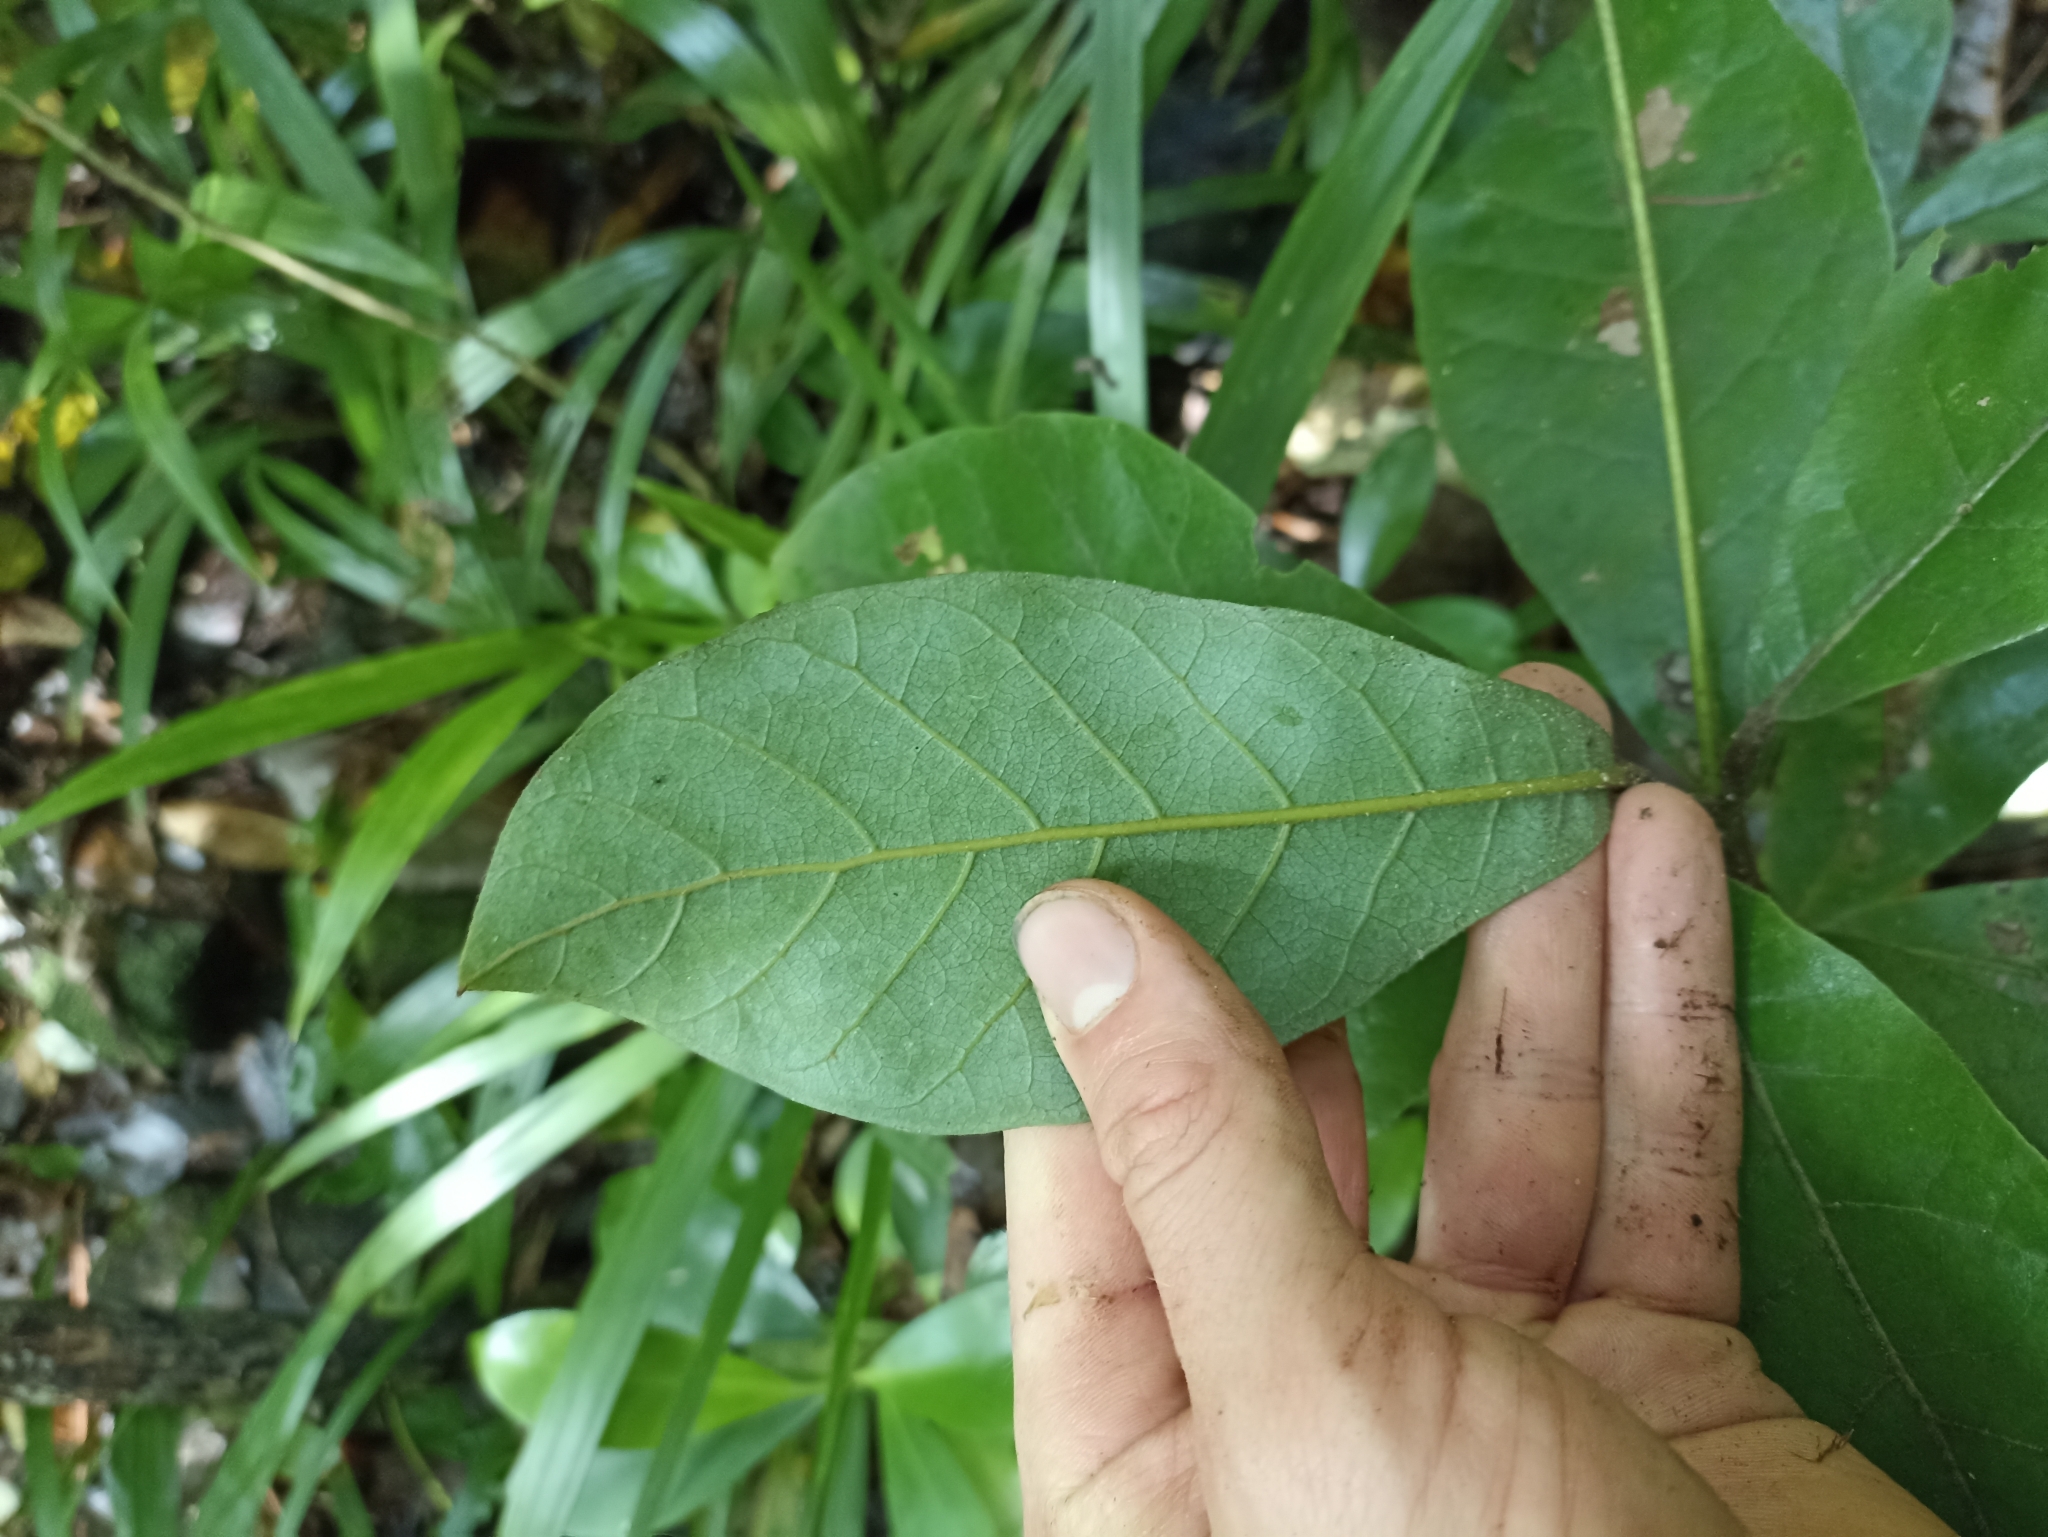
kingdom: Plantae
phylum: Tracheophyta
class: Magnoliopsida
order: Laurales
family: Lauraceae
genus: Beilschmiedia
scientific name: Beilschmiedia tarairi
